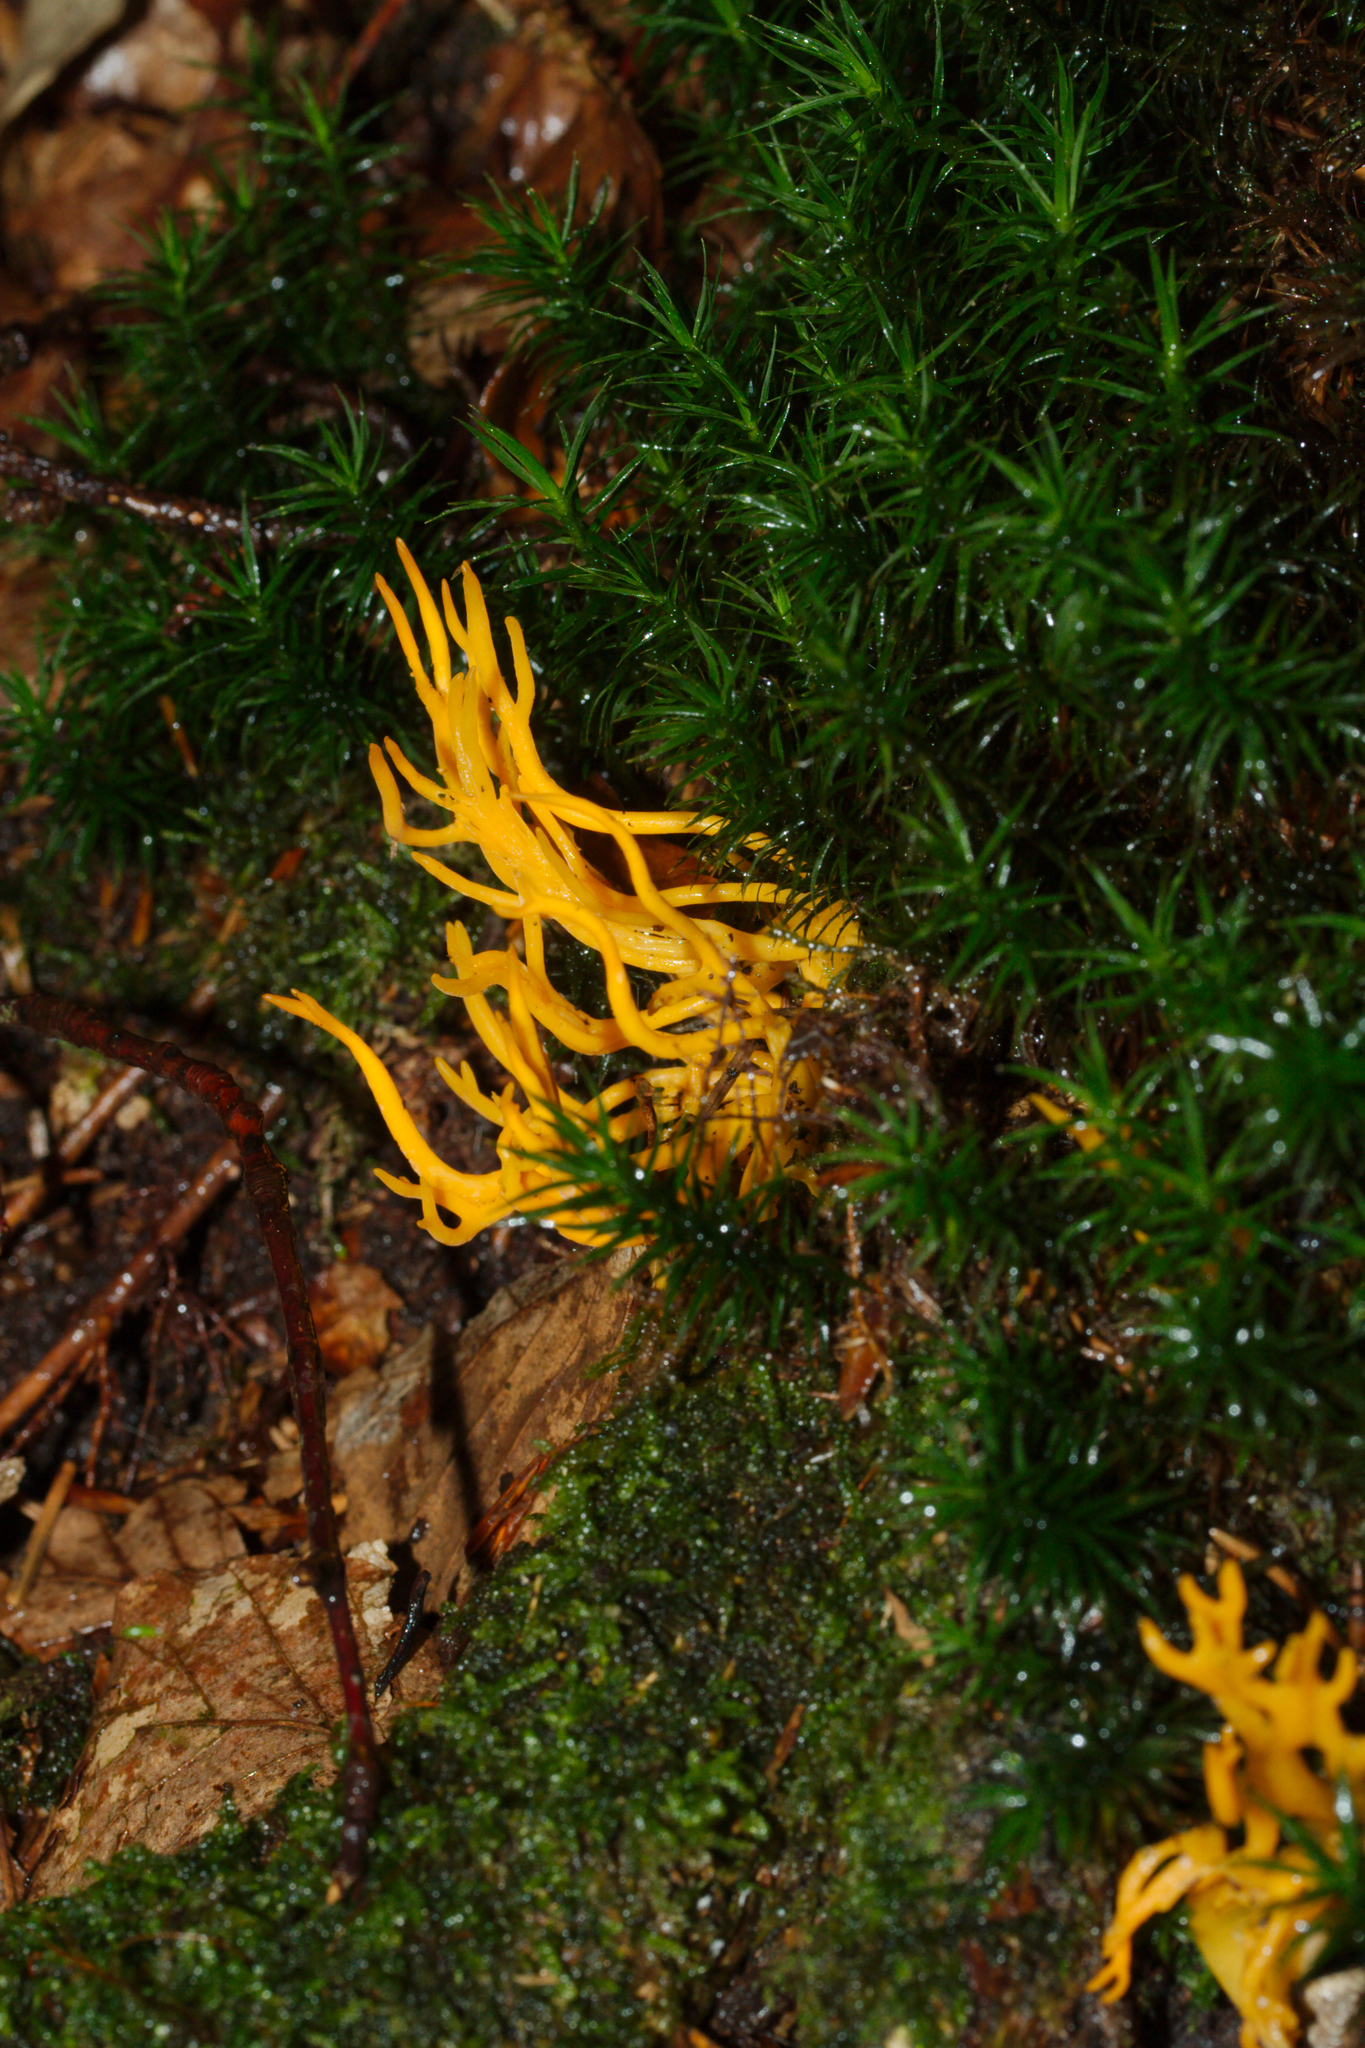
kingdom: Fungi
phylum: Basidiomycota
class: Dacrymycetes
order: Dacrymycetales
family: Dacrymycetaceae
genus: Calocera
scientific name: Calocera viscosa
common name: Yellow stagshorn
